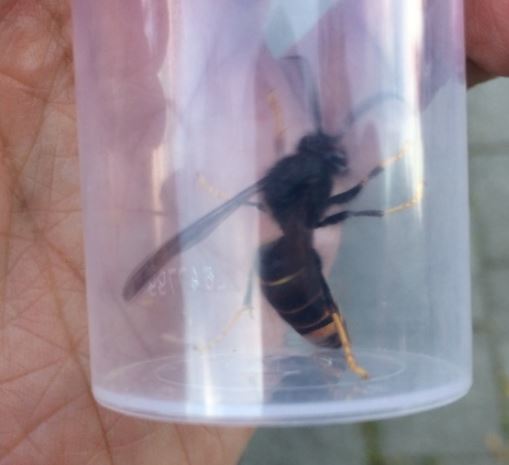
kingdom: Animalia
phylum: Arthropoda
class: Insecta
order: Hymenoptera
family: Vespidae
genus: Vespa
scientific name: Vespa velutina
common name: Asian hornet
